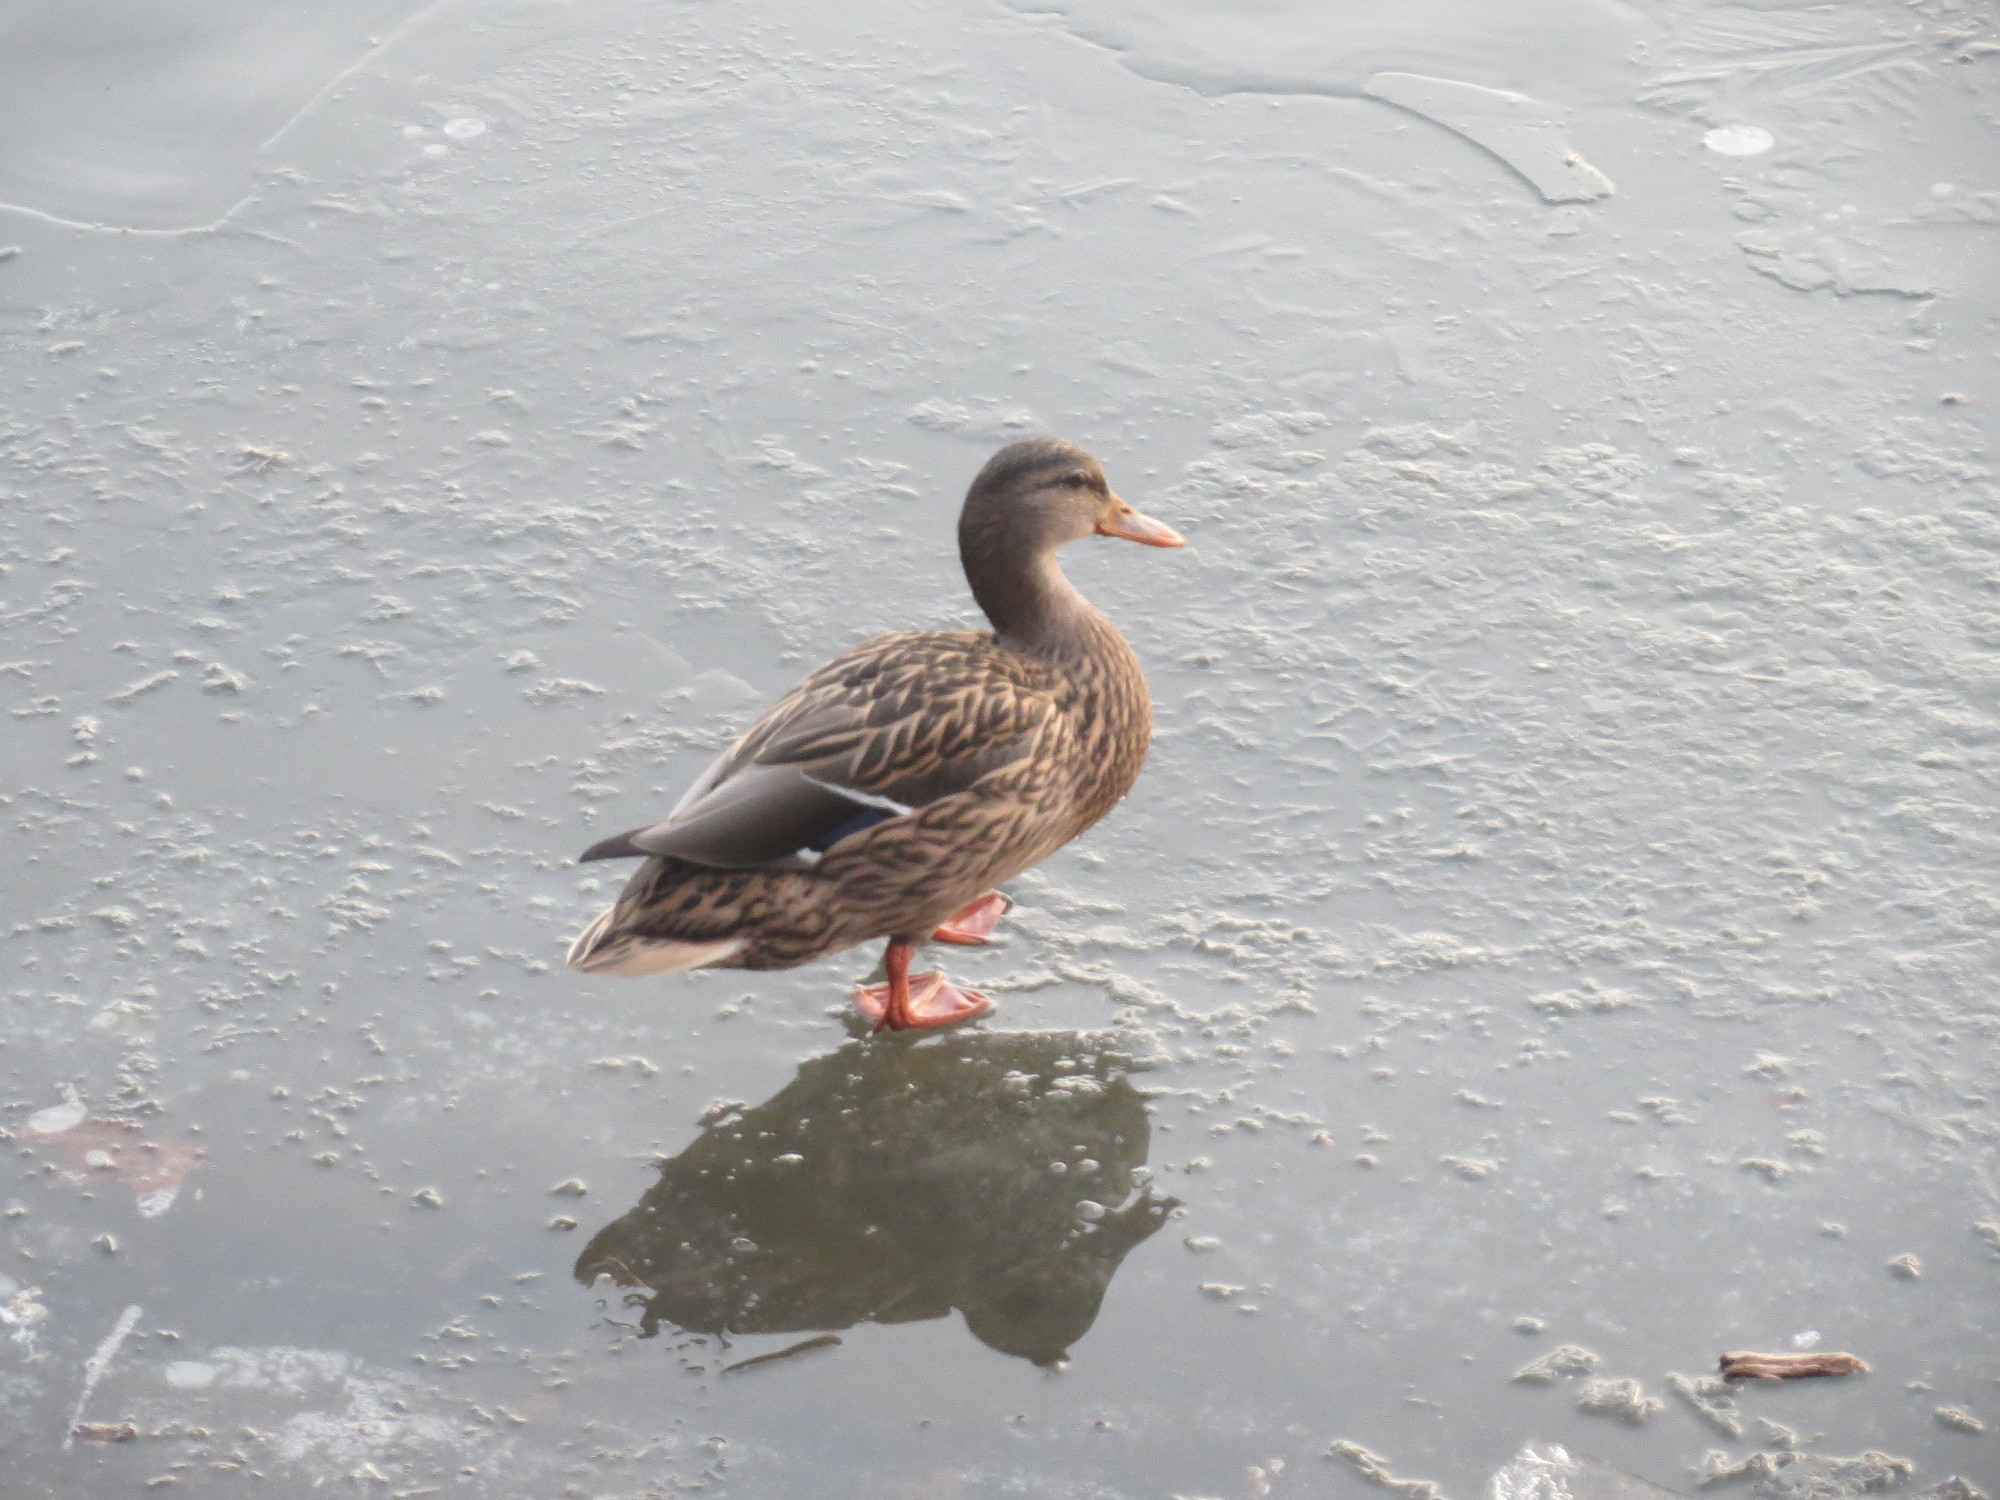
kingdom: Animalia
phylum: Chordata
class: Aves
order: Anseriformes
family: Anatidae
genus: Anas
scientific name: Anas platyrhynchos
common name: Mallard
